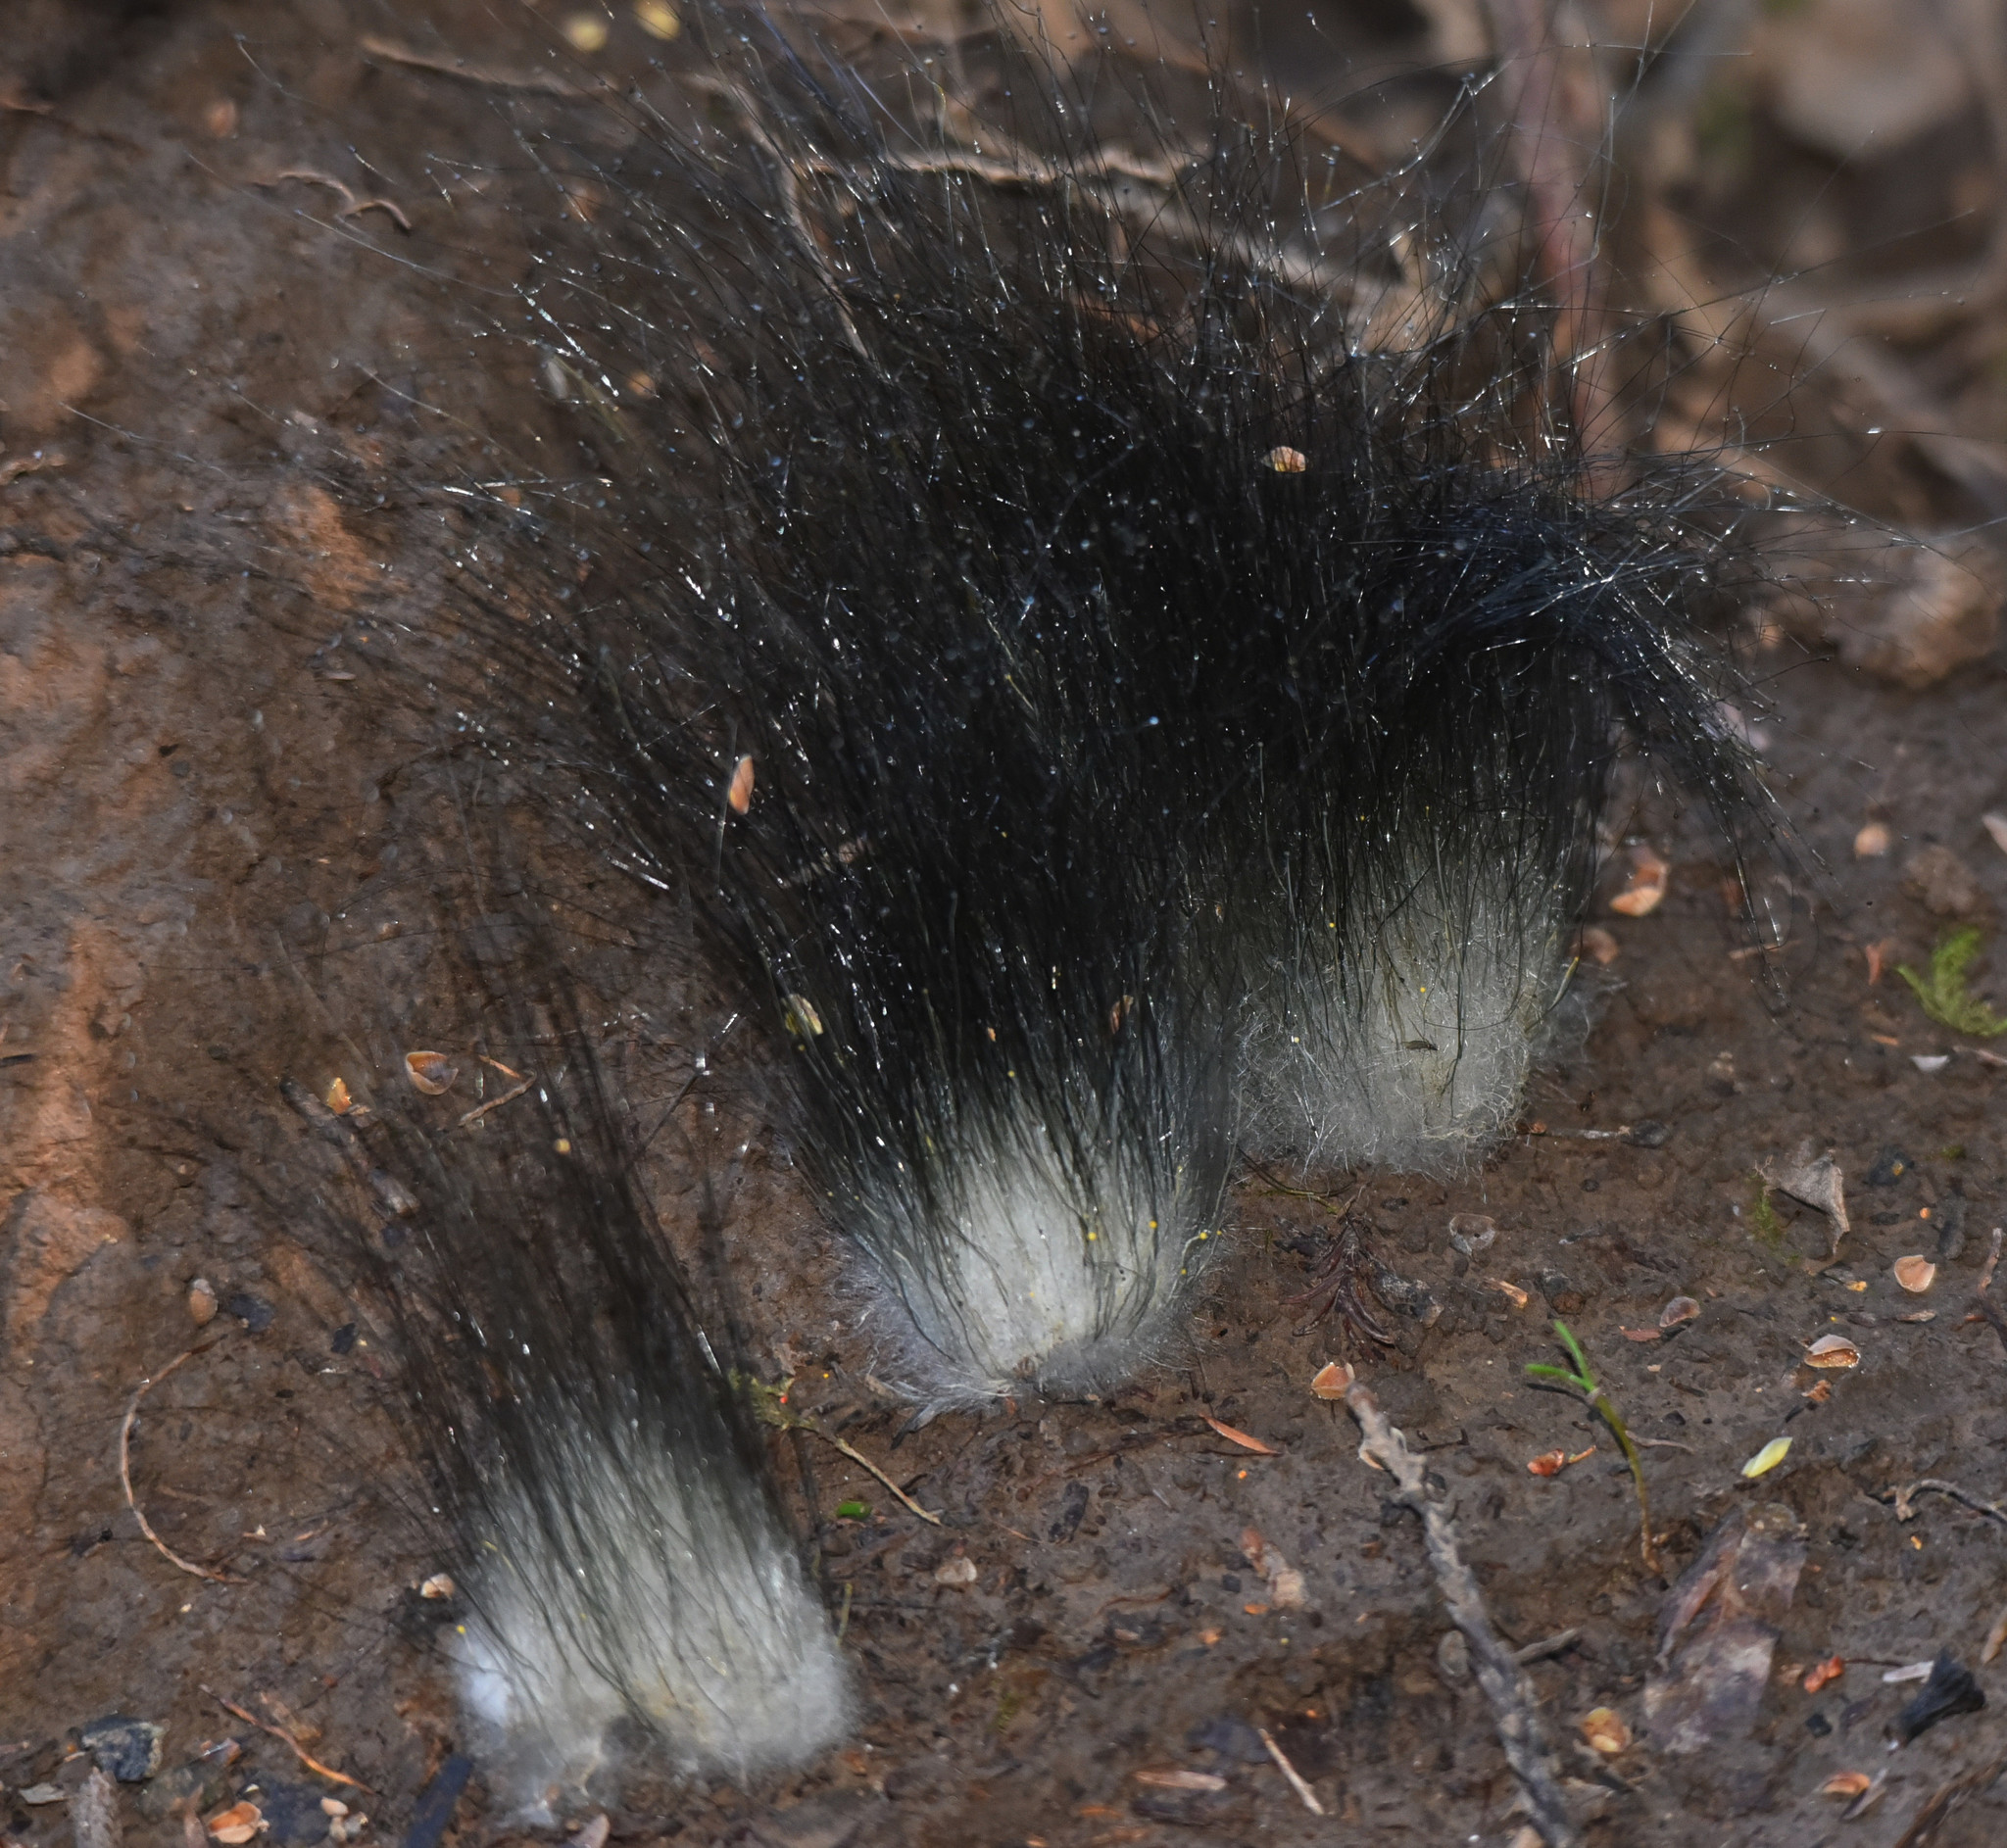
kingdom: Fungi
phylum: Mucoromycota
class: Mucoromycetes
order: Mucorales
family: Phycomycetaceae
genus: Phycomyces
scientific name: Phycomyces
